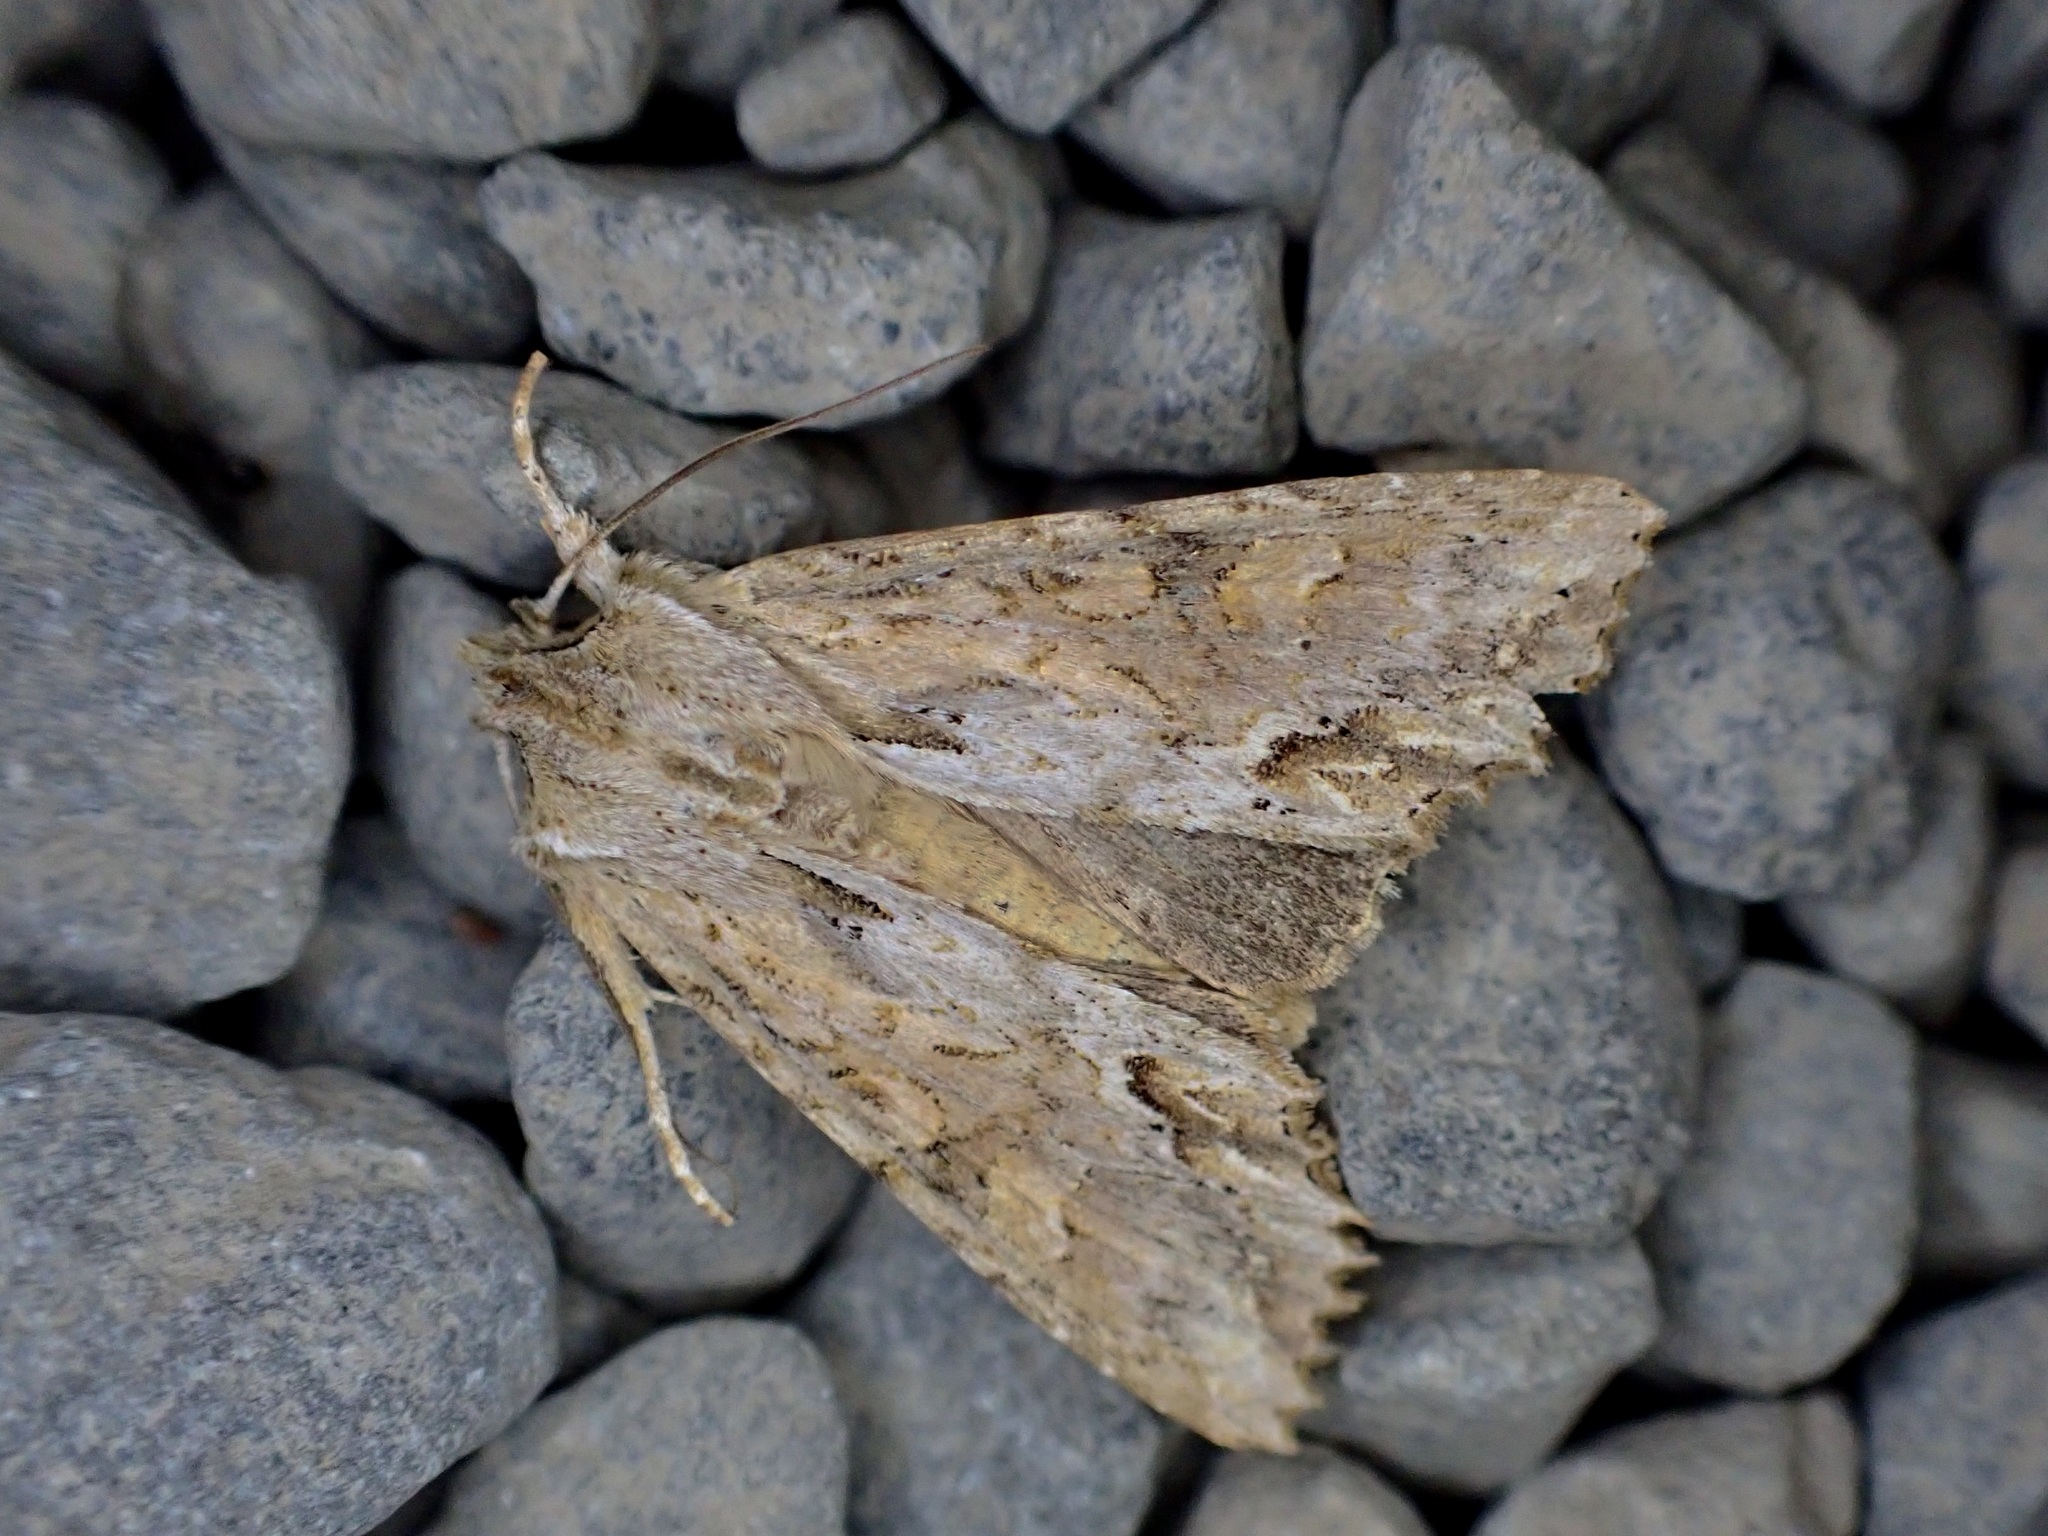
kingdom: Animalia
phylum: Arthropoda
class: Insecta
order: Lepidoptera
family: Noctuidae
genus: Ichneutica
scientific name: Ichneutica mollis
